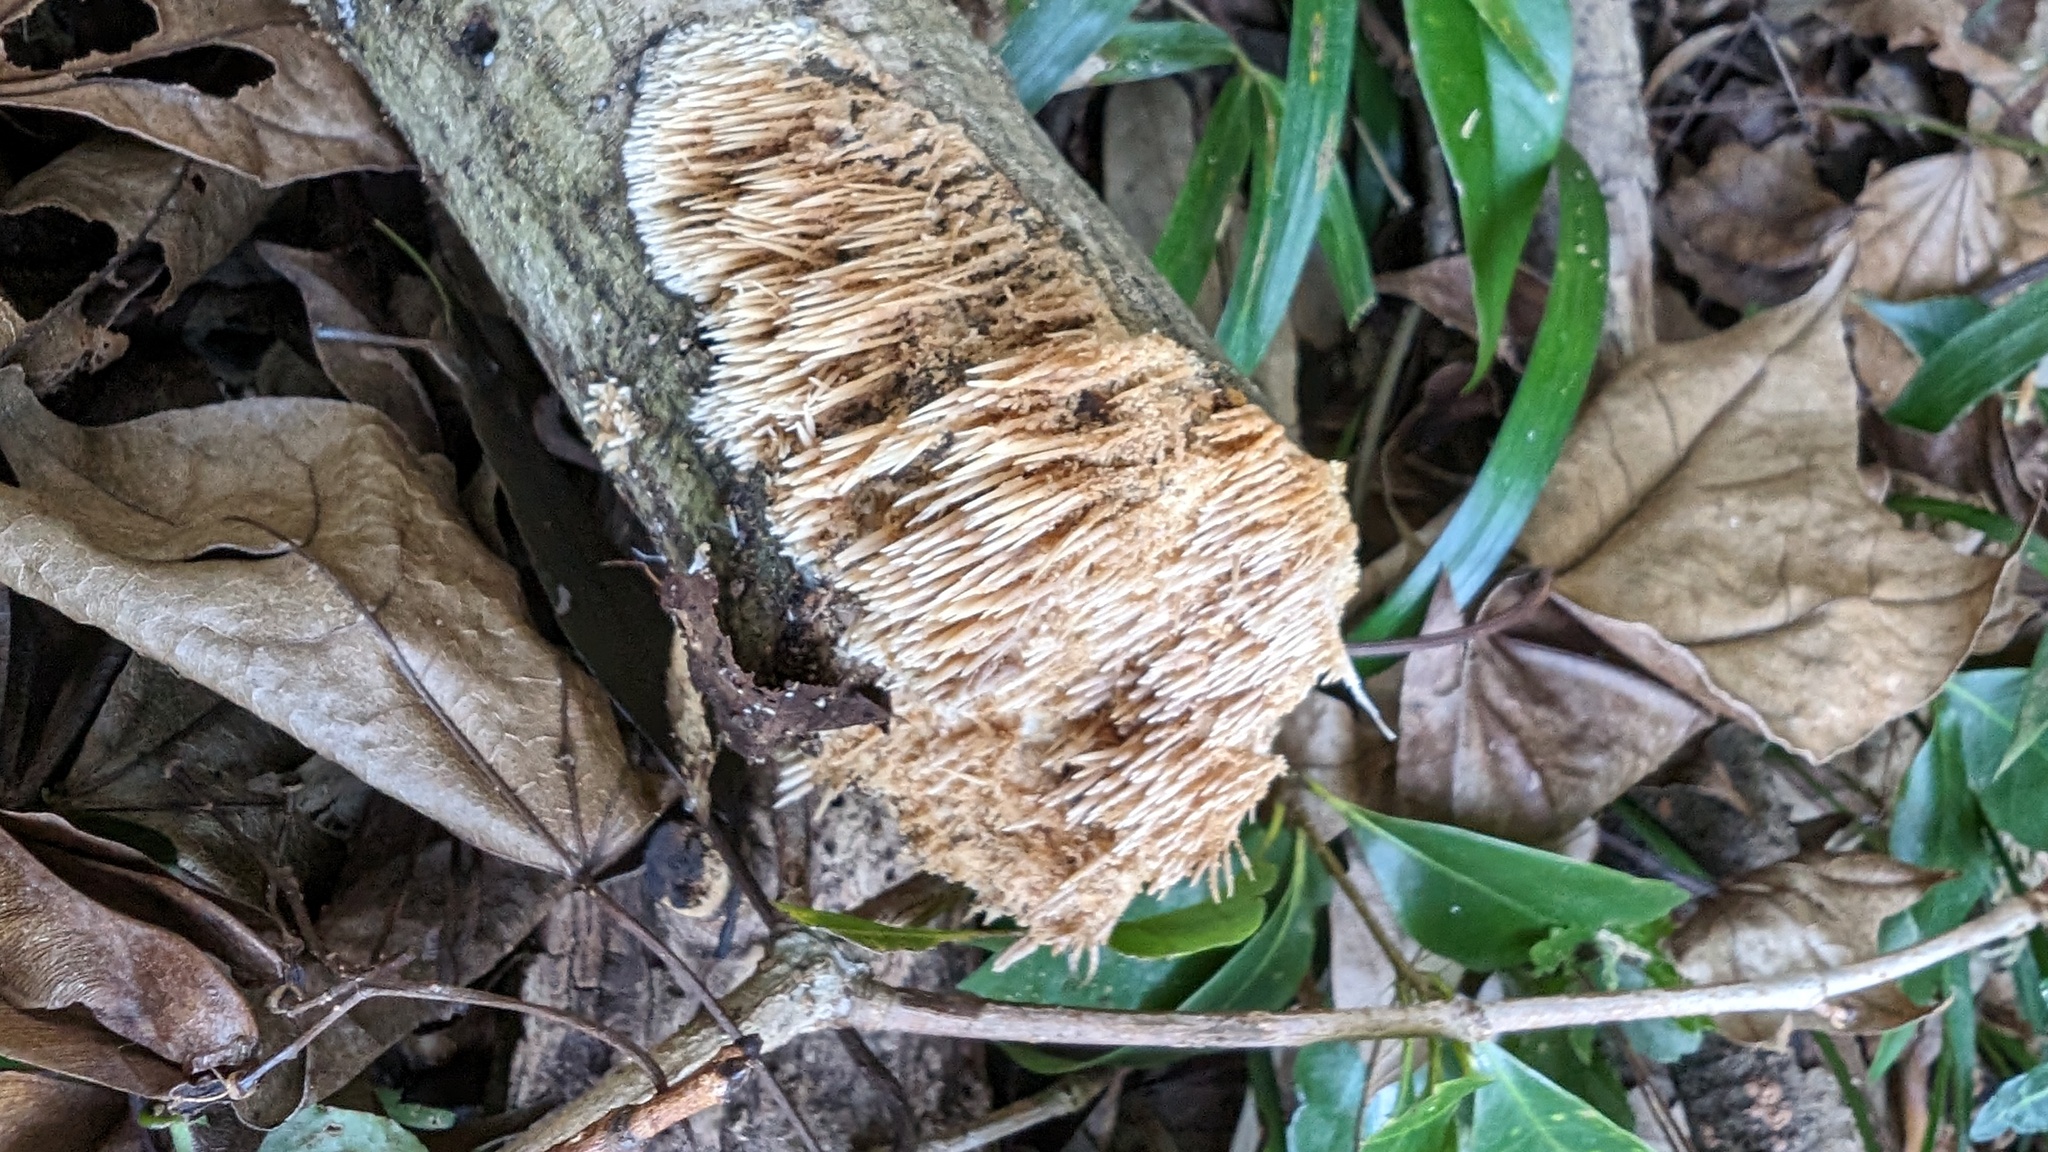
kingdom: Fungi
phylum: Basidiomycota
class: Agaricomycetes
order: Agaricales
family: Radulomycetaceae
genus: Radulomyces
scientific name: Radulomyces copelandii
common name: Asian beauty
